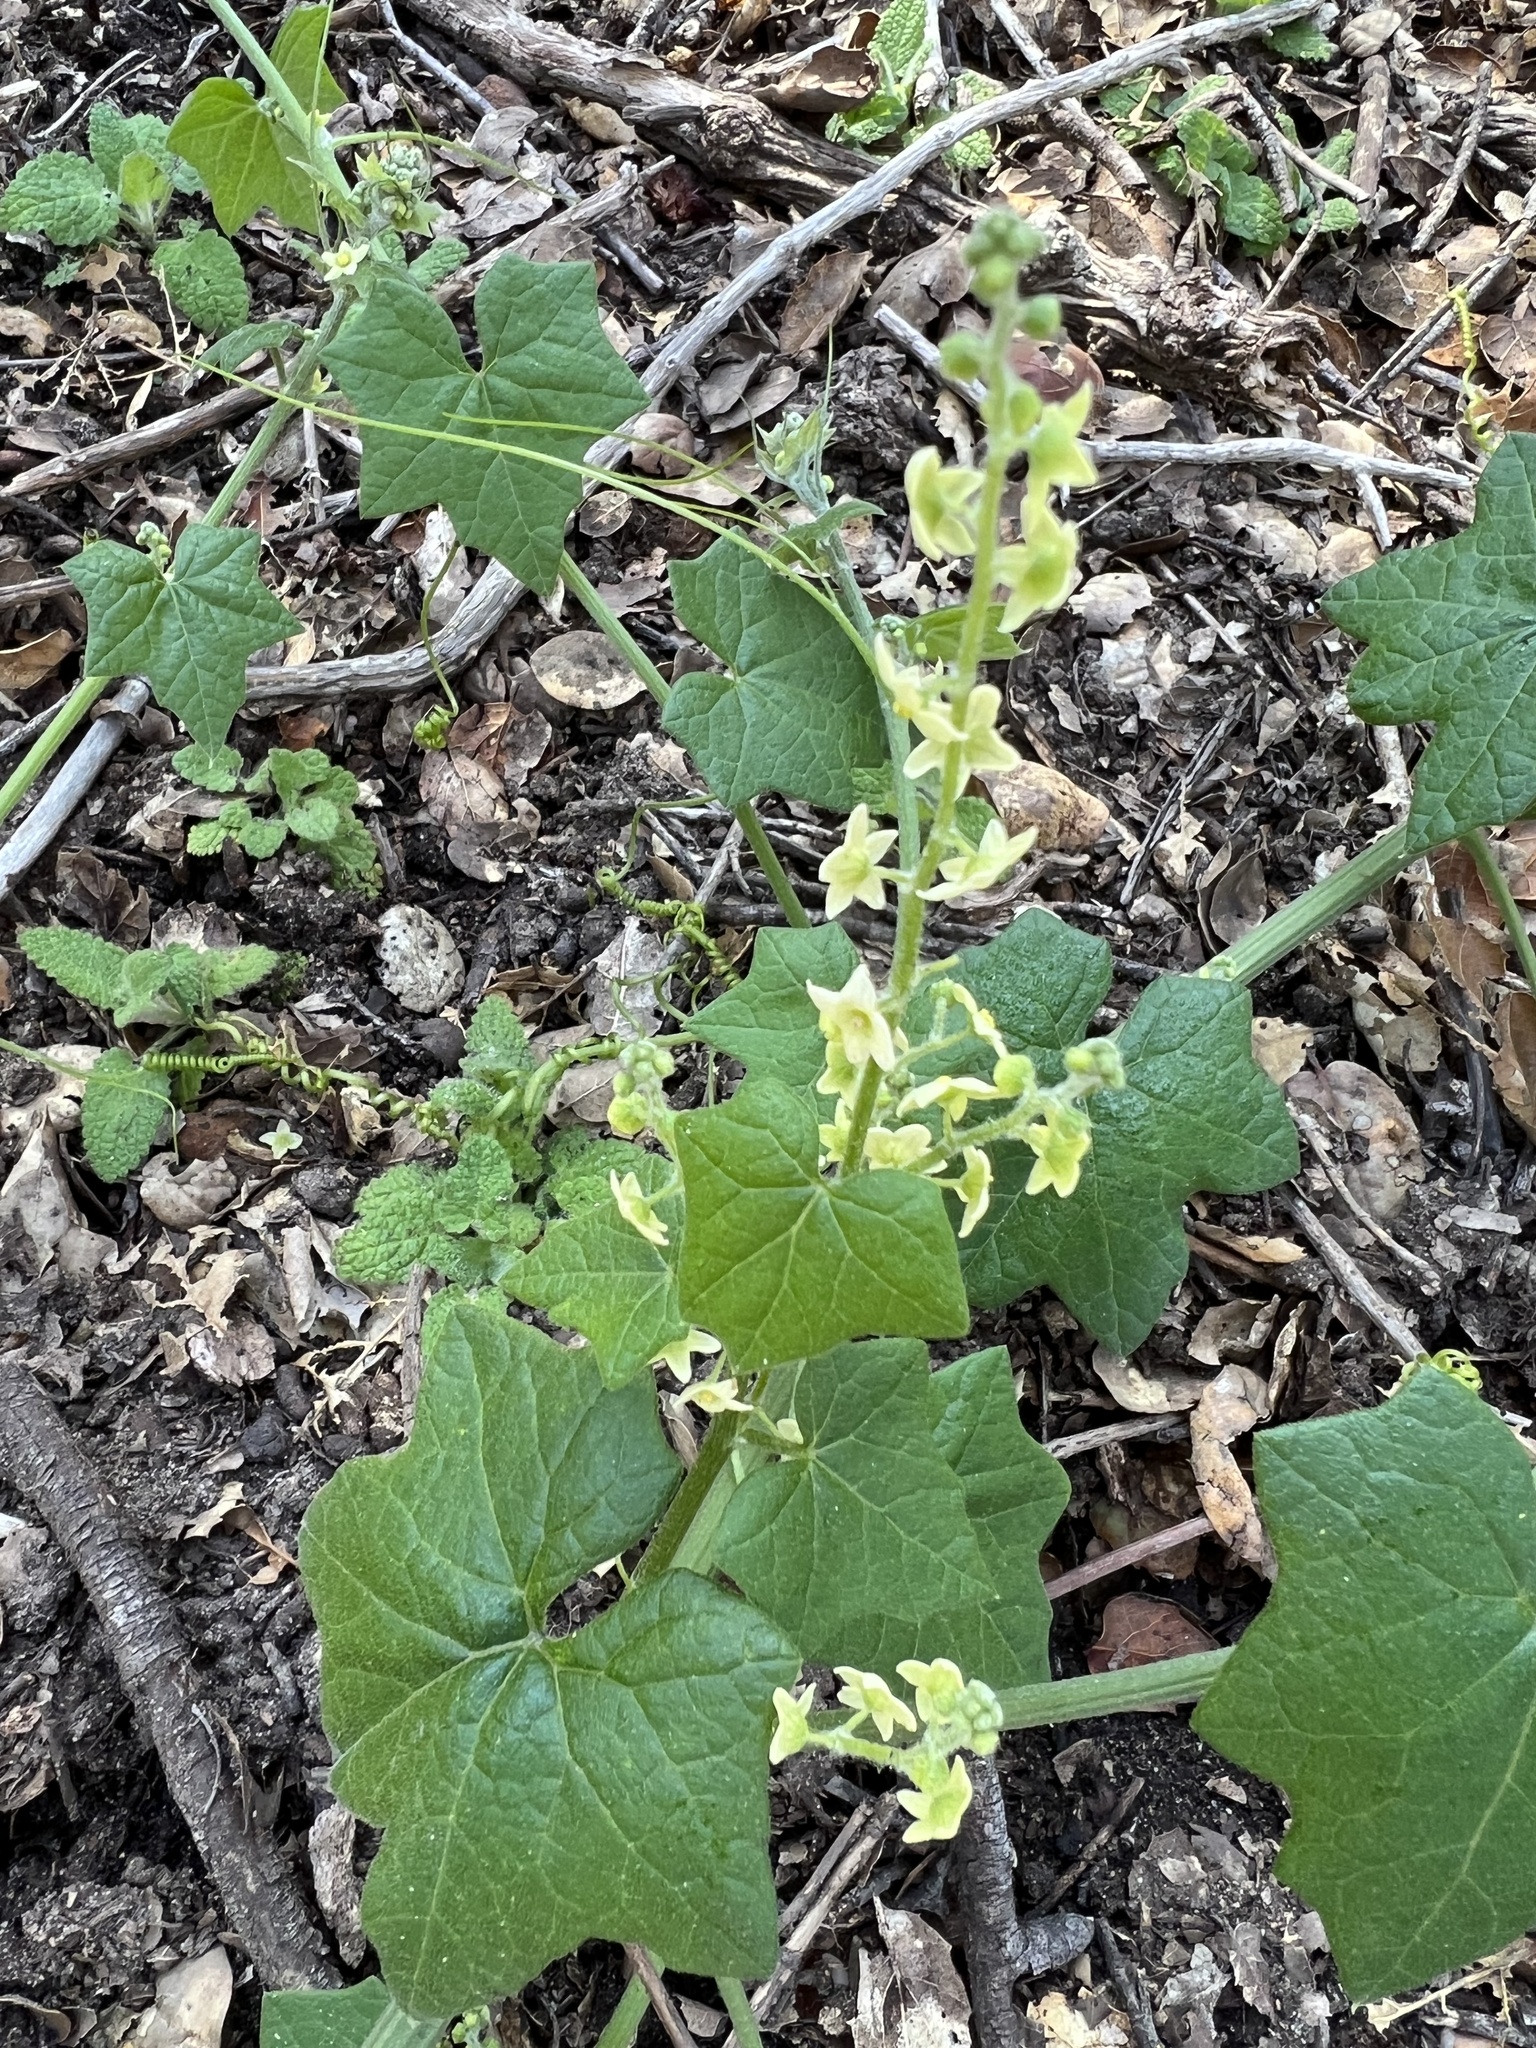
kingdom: Plantae
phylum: Tracheophyta
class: Magnoliopsida
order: Cucurbitales
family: Cucurbitaceae
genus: Marah
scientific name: Marah fabacea
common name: California manroot
